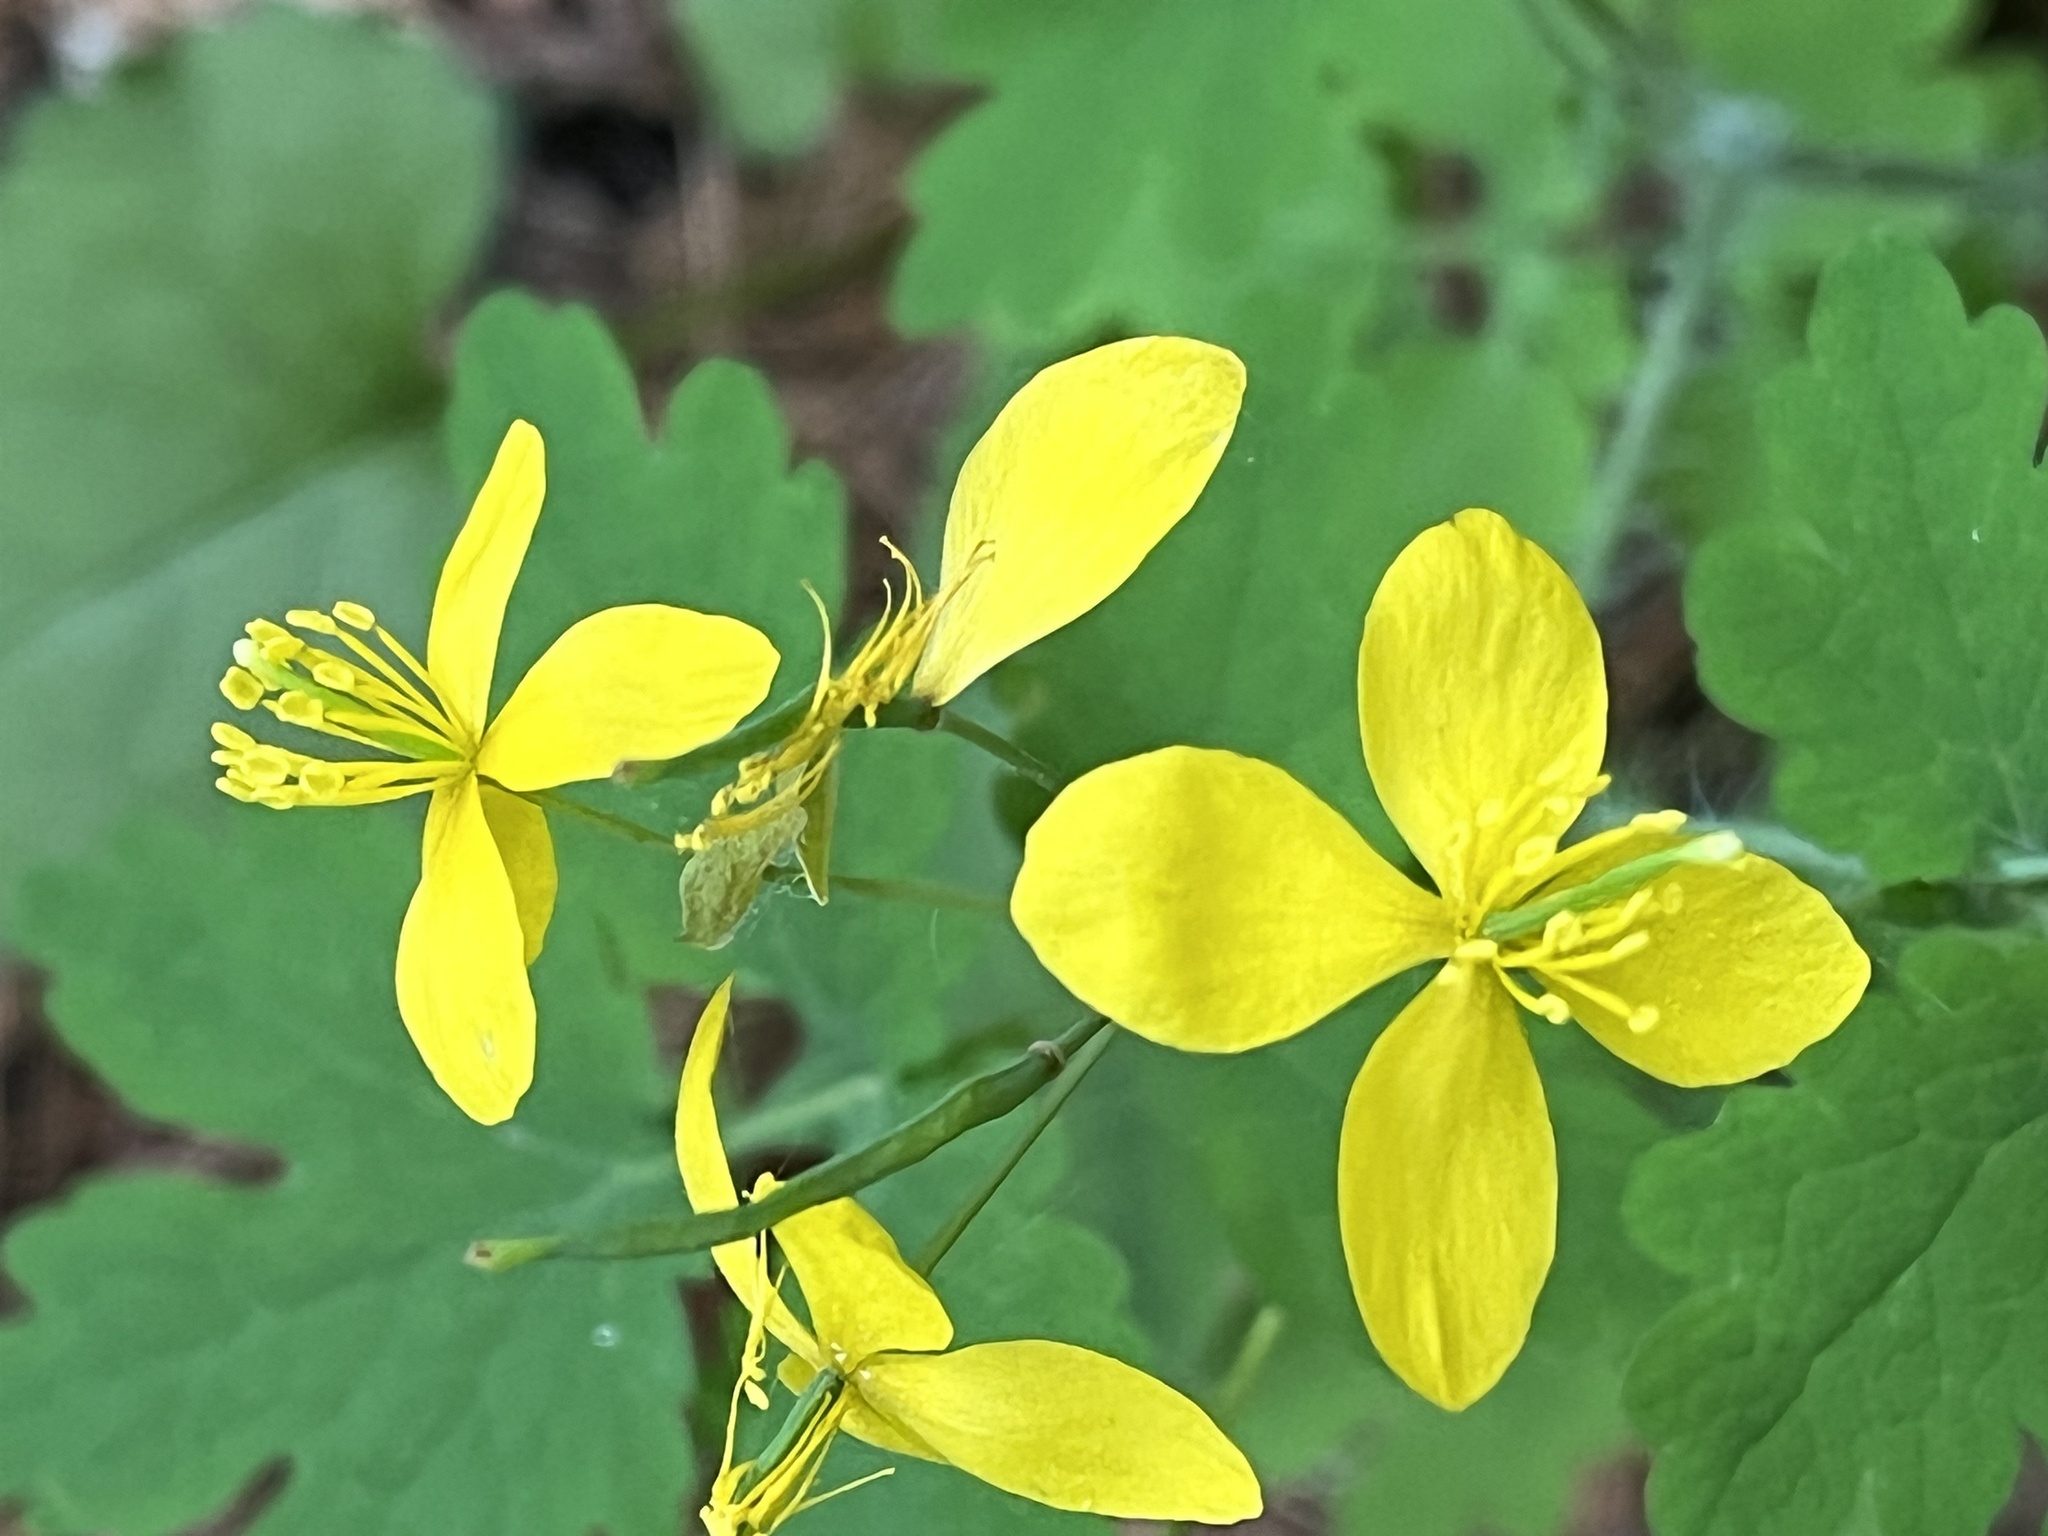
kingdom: Plantae
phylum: Tracheophyta
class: Magnoliopsida
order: Ranunculales
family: Papaveraceae
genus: Chelidonium
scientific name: Chelidonium majus
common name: Greater celandine
